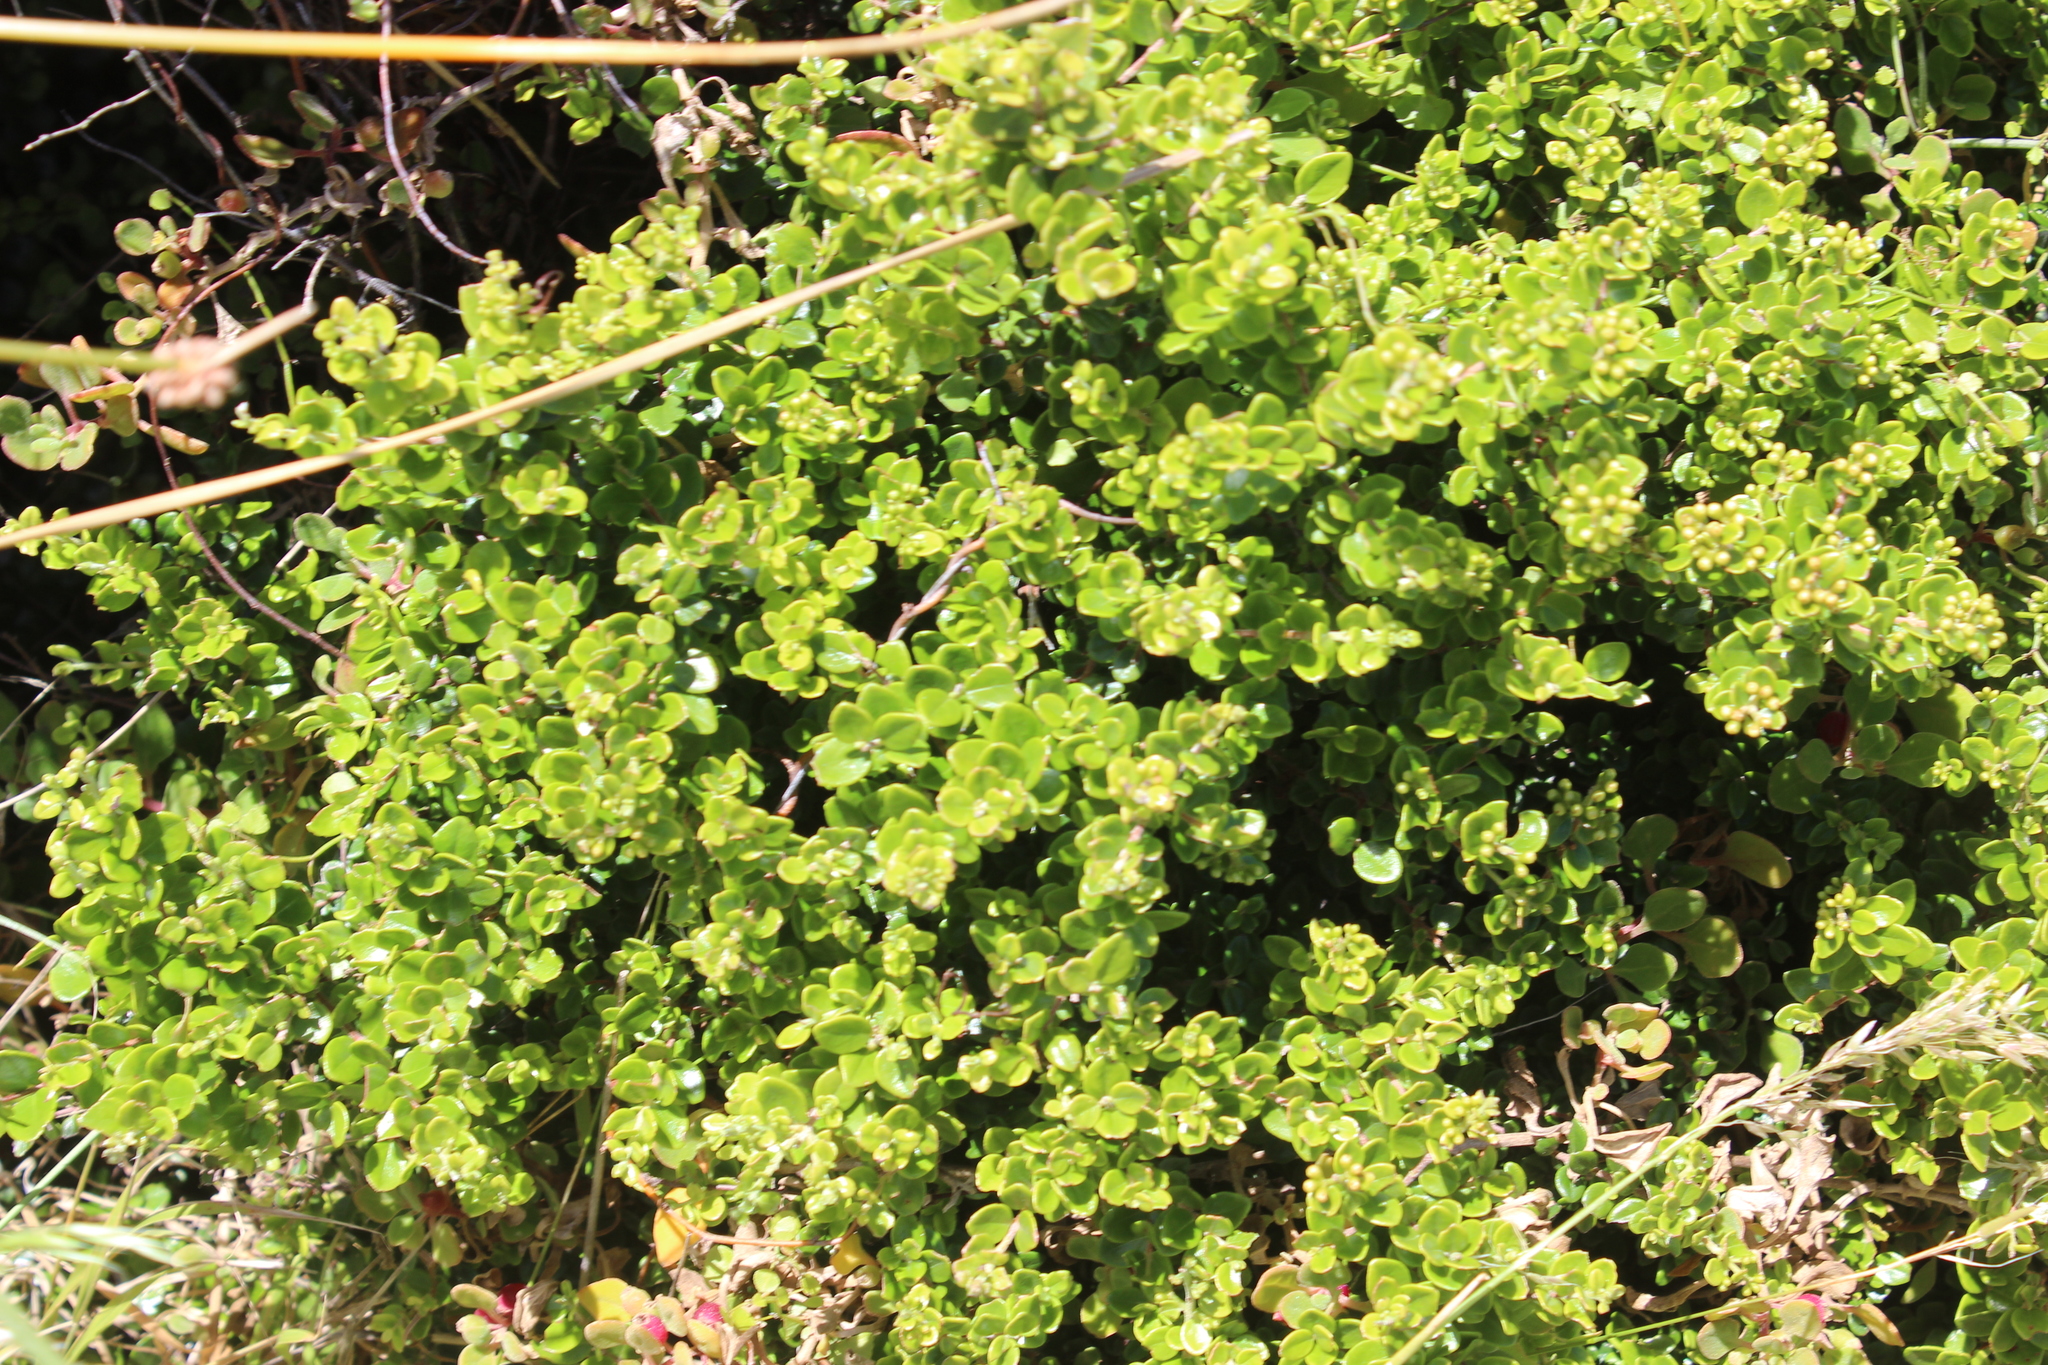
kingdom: Plantae
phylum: Tracheophyta
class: Magnoliopsida
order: Myrtales
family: Myrtaceae
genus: Metrosideros
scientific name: Metrosideros perforata
